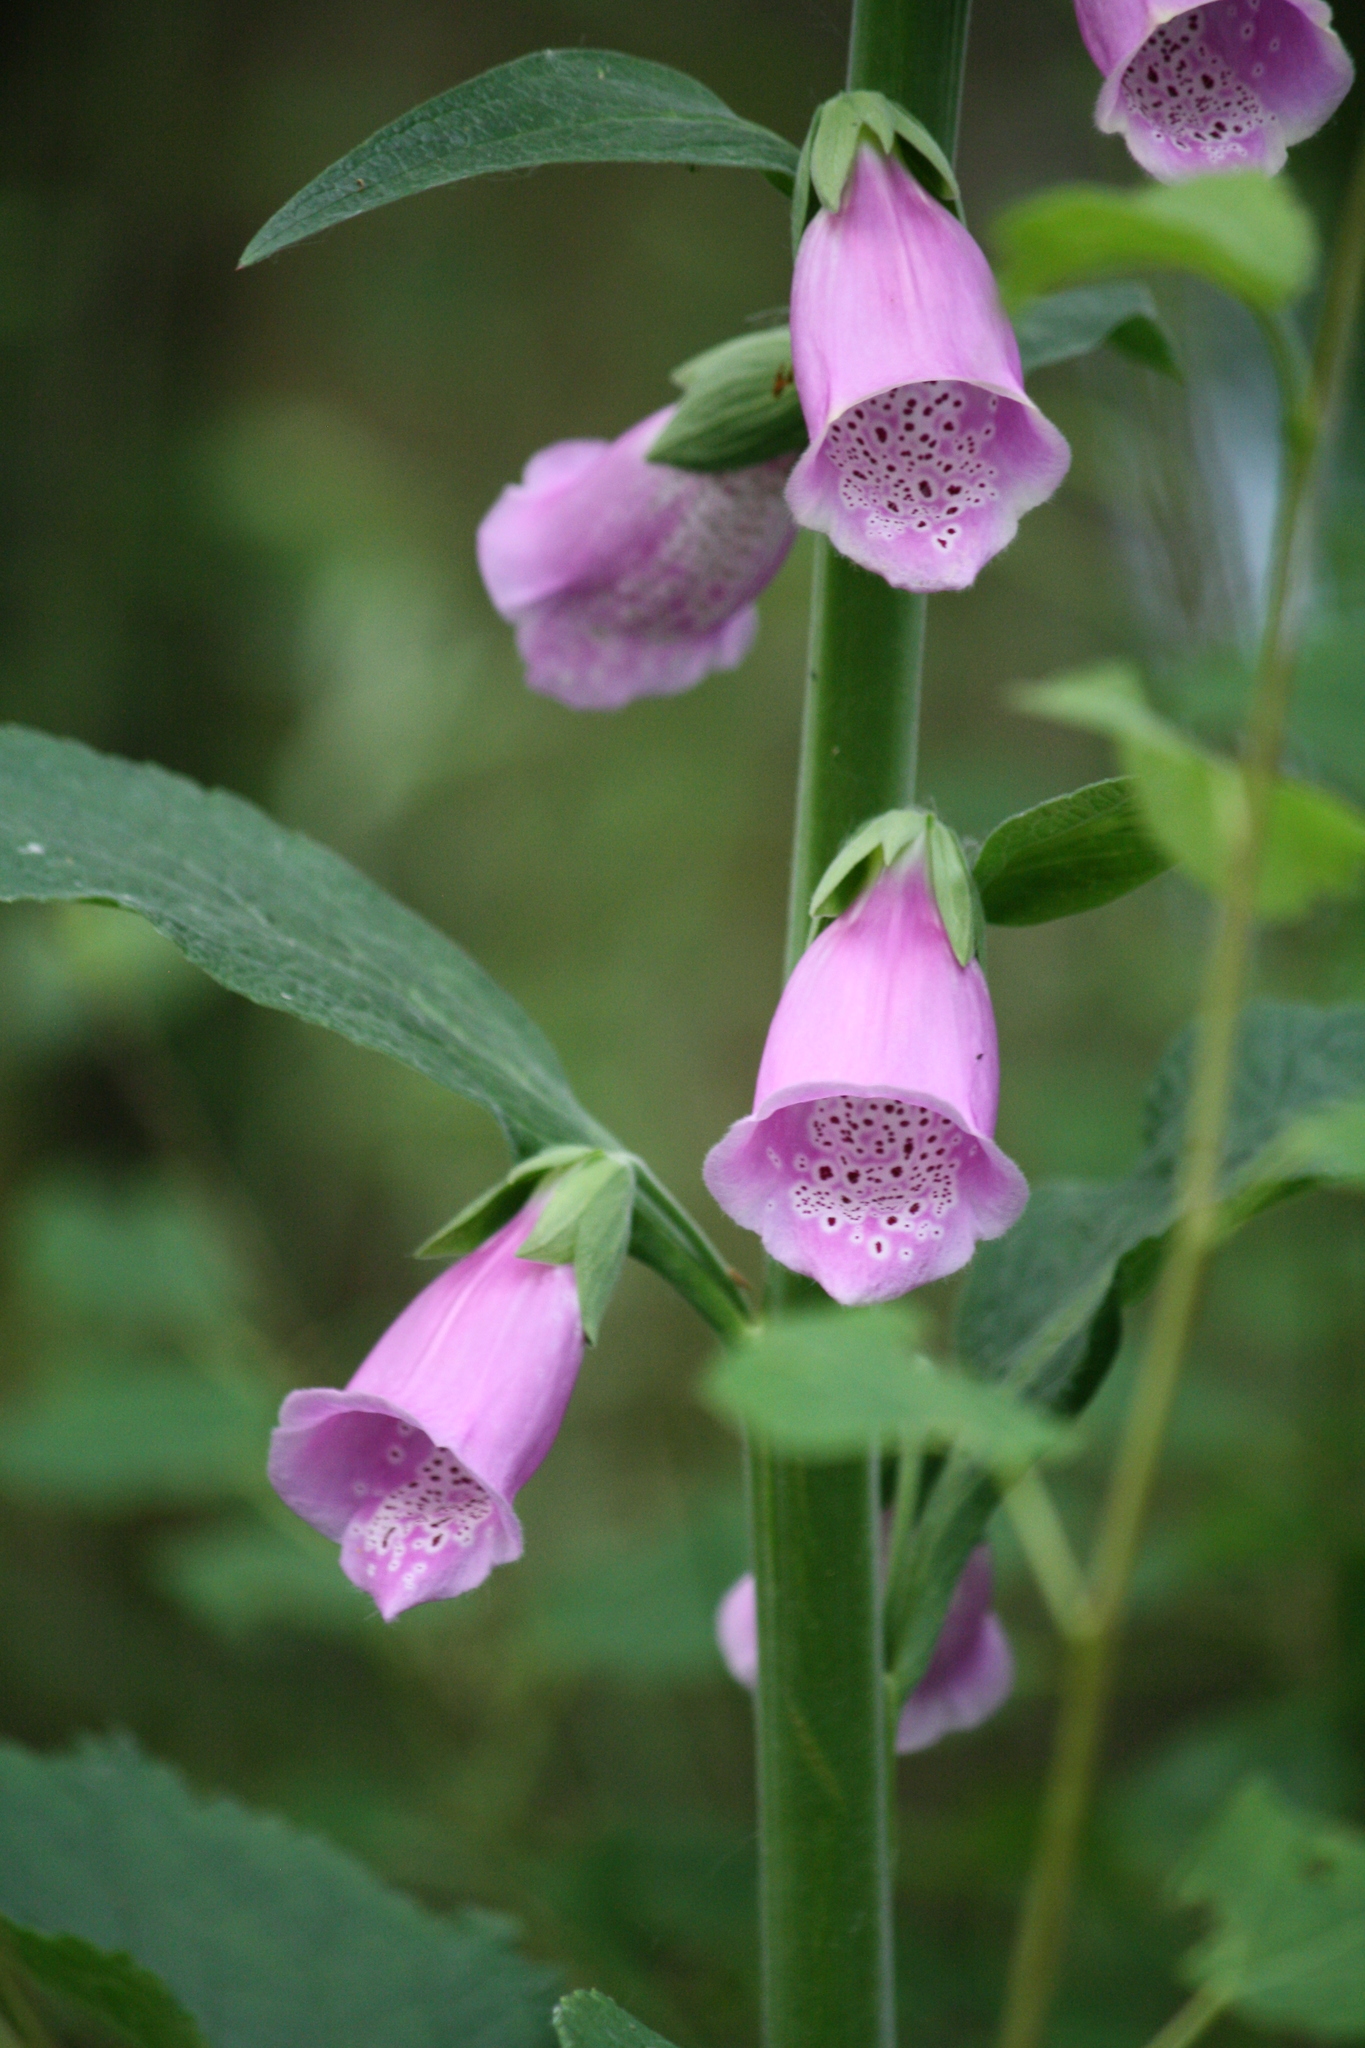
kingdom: Plantae
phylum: Tracheophyta
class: Magnoliopsida
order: Lamiales
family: Plantaginaceae
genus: Digitalis
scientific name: Digitalis purpurea
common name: Foxglove
